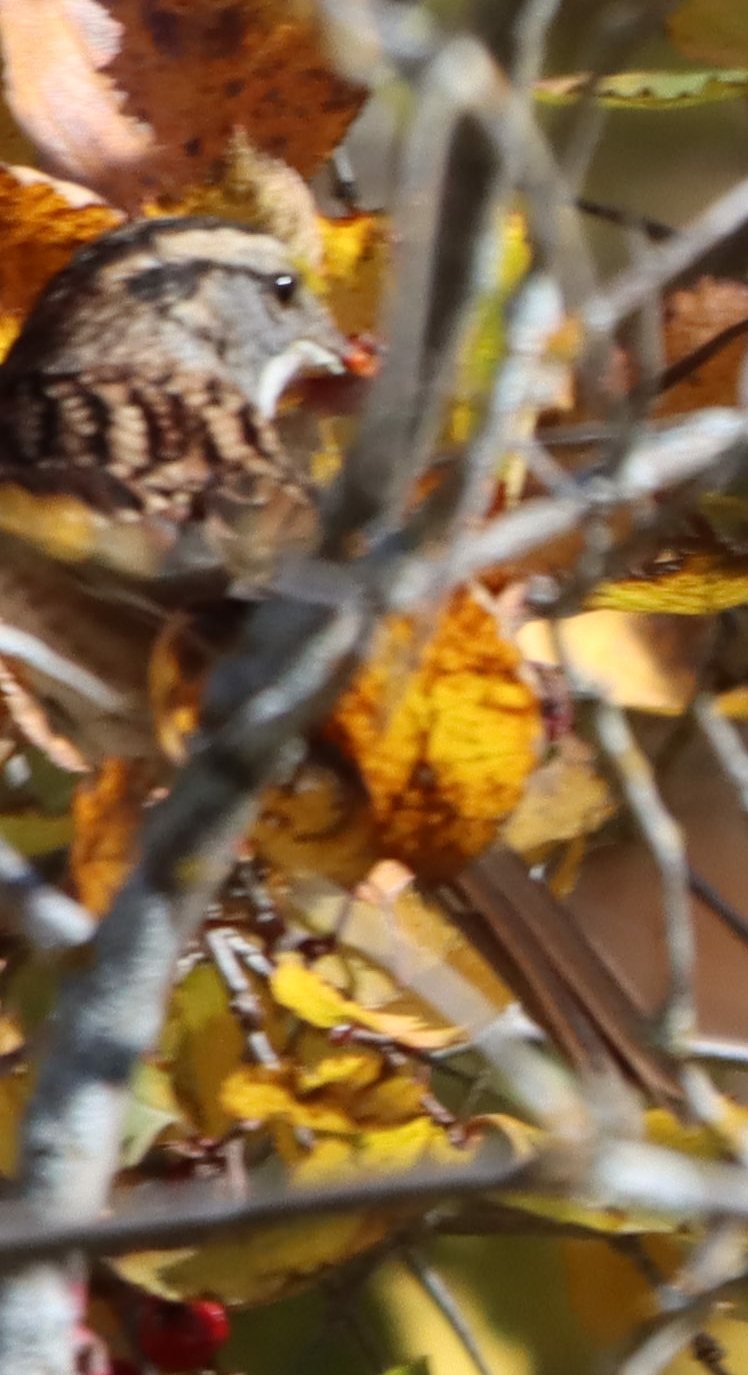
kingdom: Animalia
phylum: Chordata
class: Aves
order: Passeriformes
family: Passerellidae
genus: Zonotrichia
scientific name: Zonotrichia albicollis
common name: White-throated sparrow
